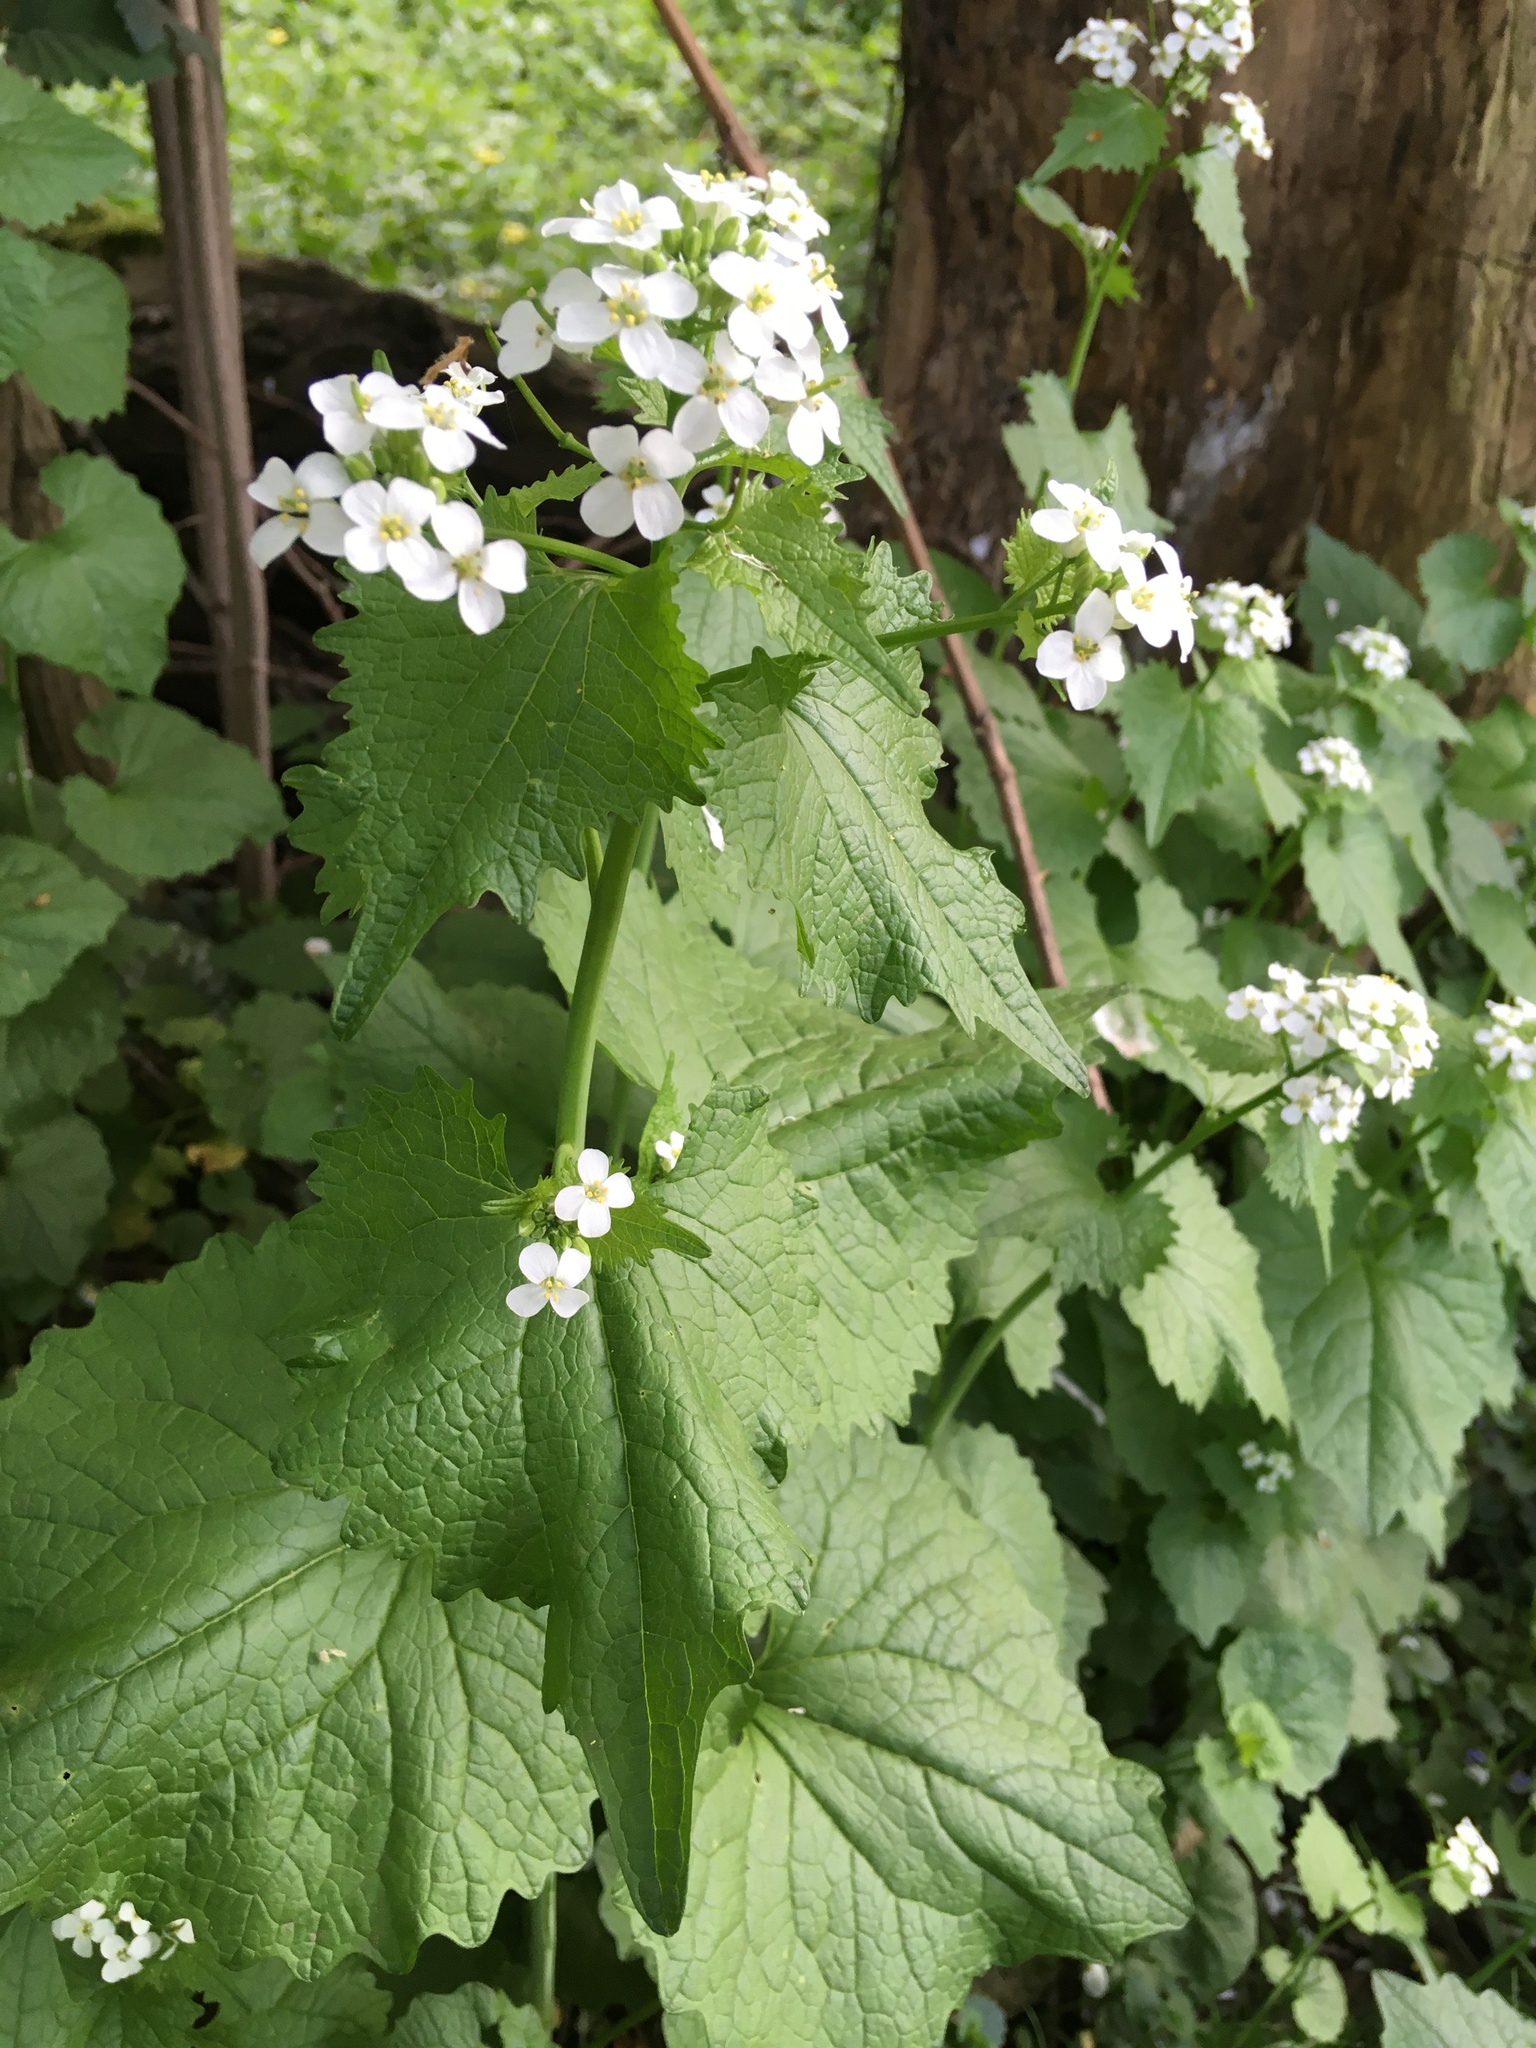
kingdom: Plantae
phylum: Tracheophyta
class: Magnoliopsida
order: Brassicales
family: Brassicaceae
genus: Alliaria
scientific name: Alliaria petiolata
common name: Garlic mustard
